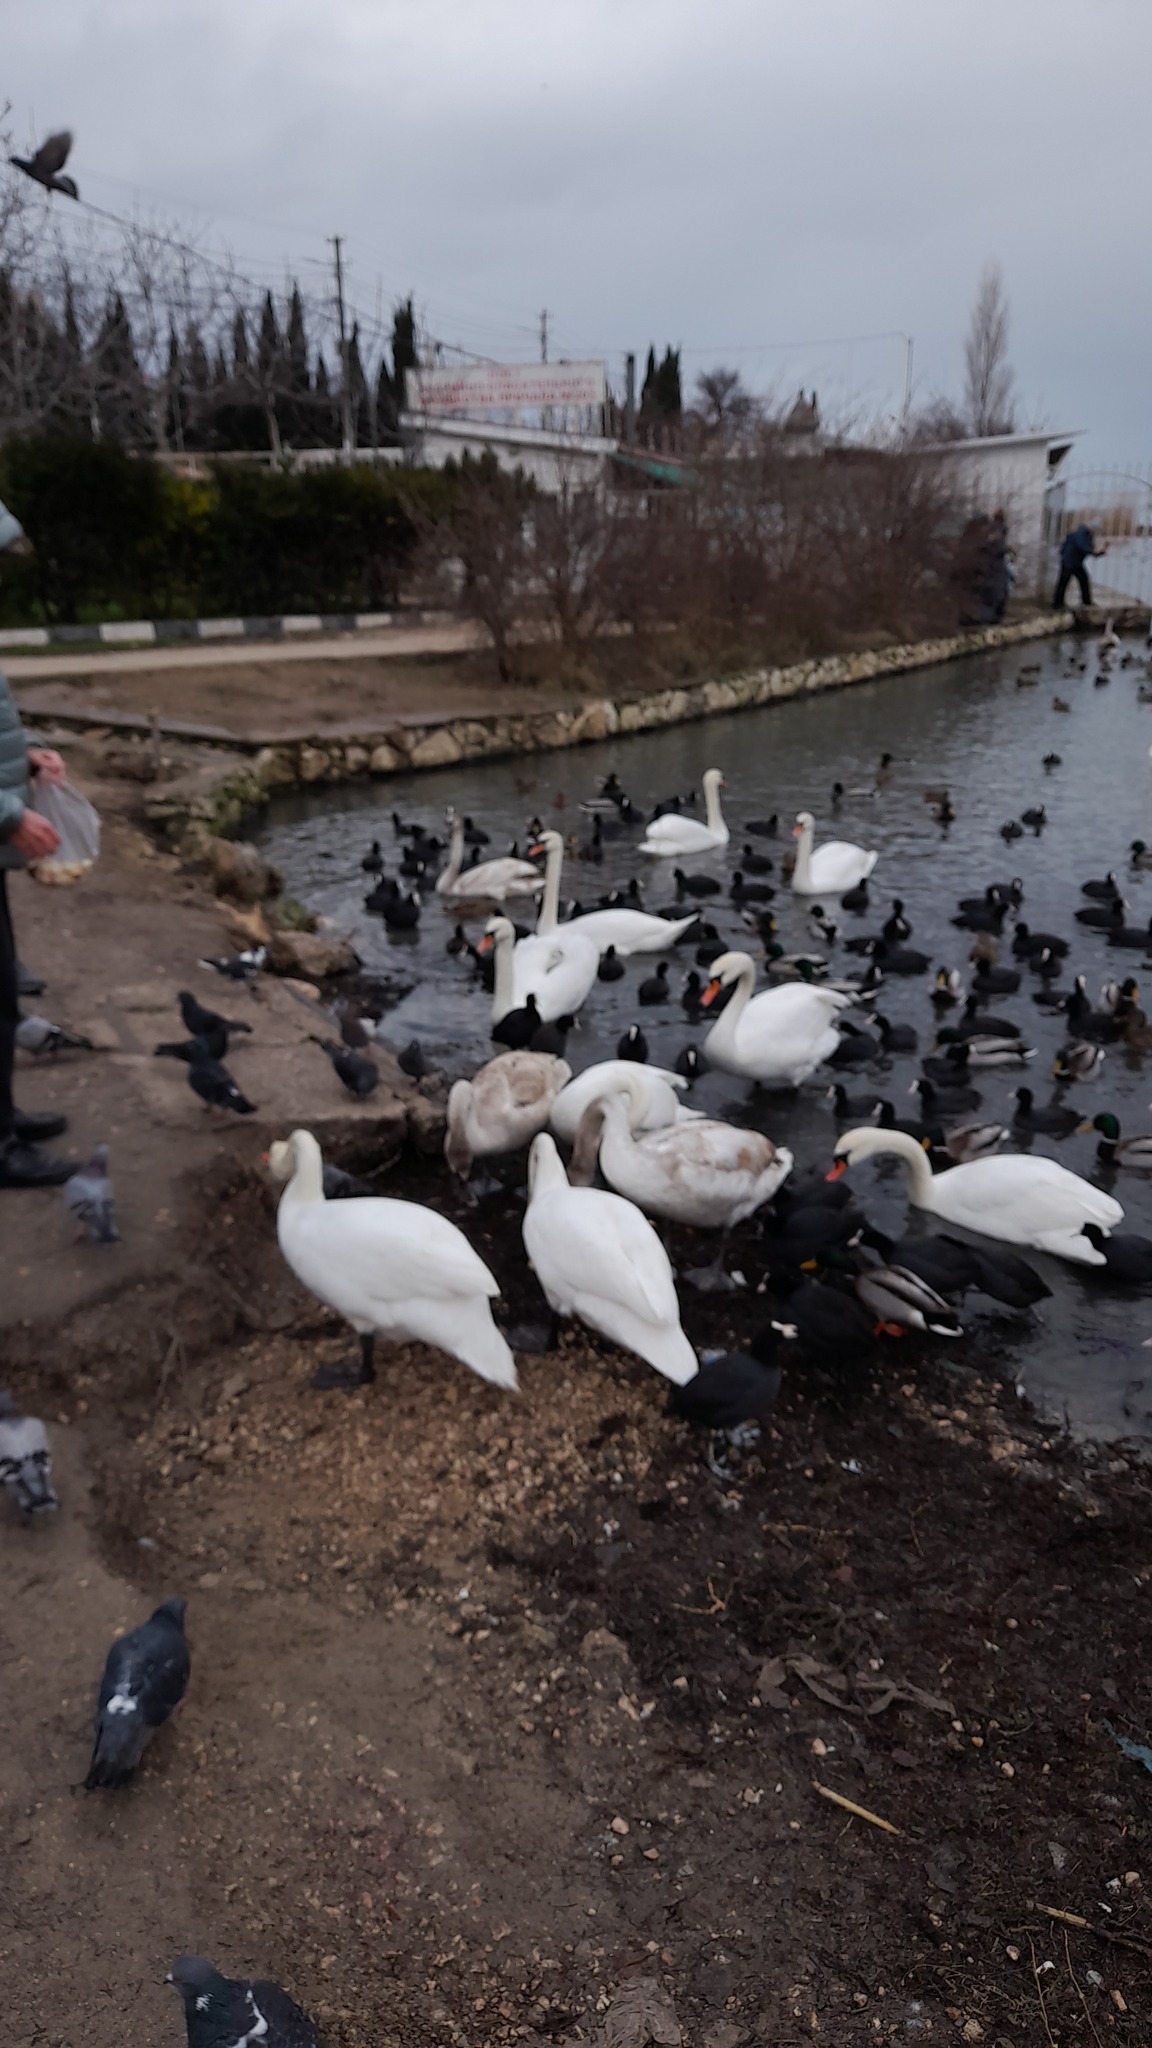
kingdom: Animalia
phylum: Chordata
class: Aves
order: Anseriformes
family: Anatidae
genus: Cygnus
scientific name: Cygnus olor
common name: Mute swan
